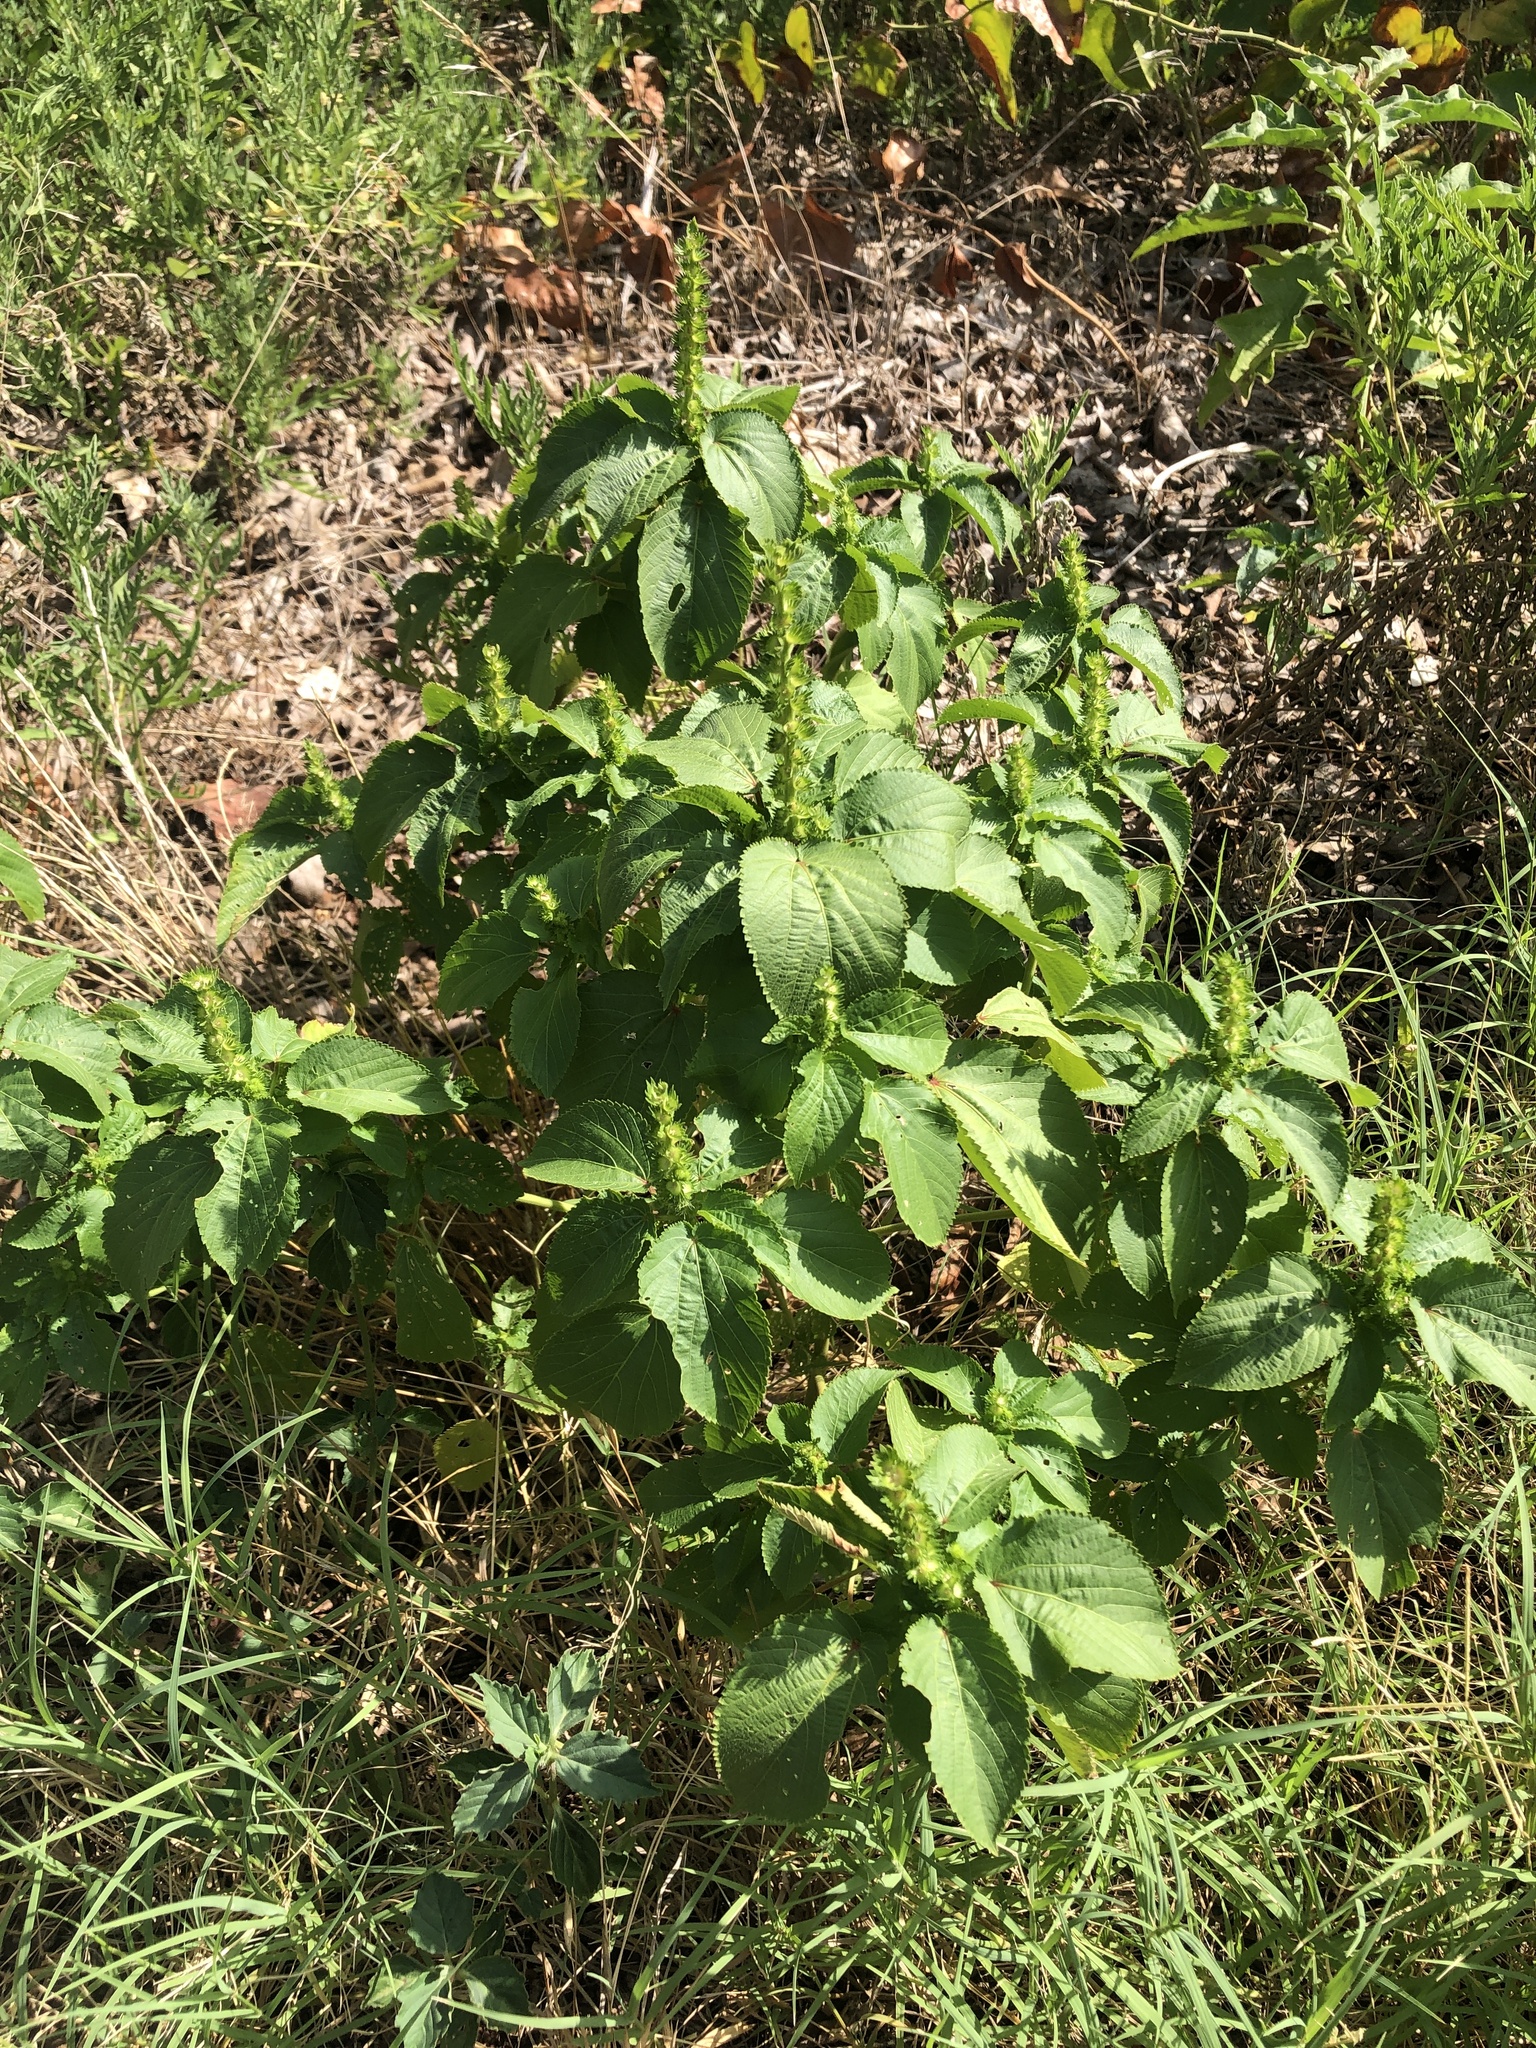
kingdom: Plantae
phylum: Tracheophyta
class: Magnoliopsida
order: Malpighiales
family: Euphorbiaceae
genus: Acalypha
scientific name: Acalypha ostryifolia
